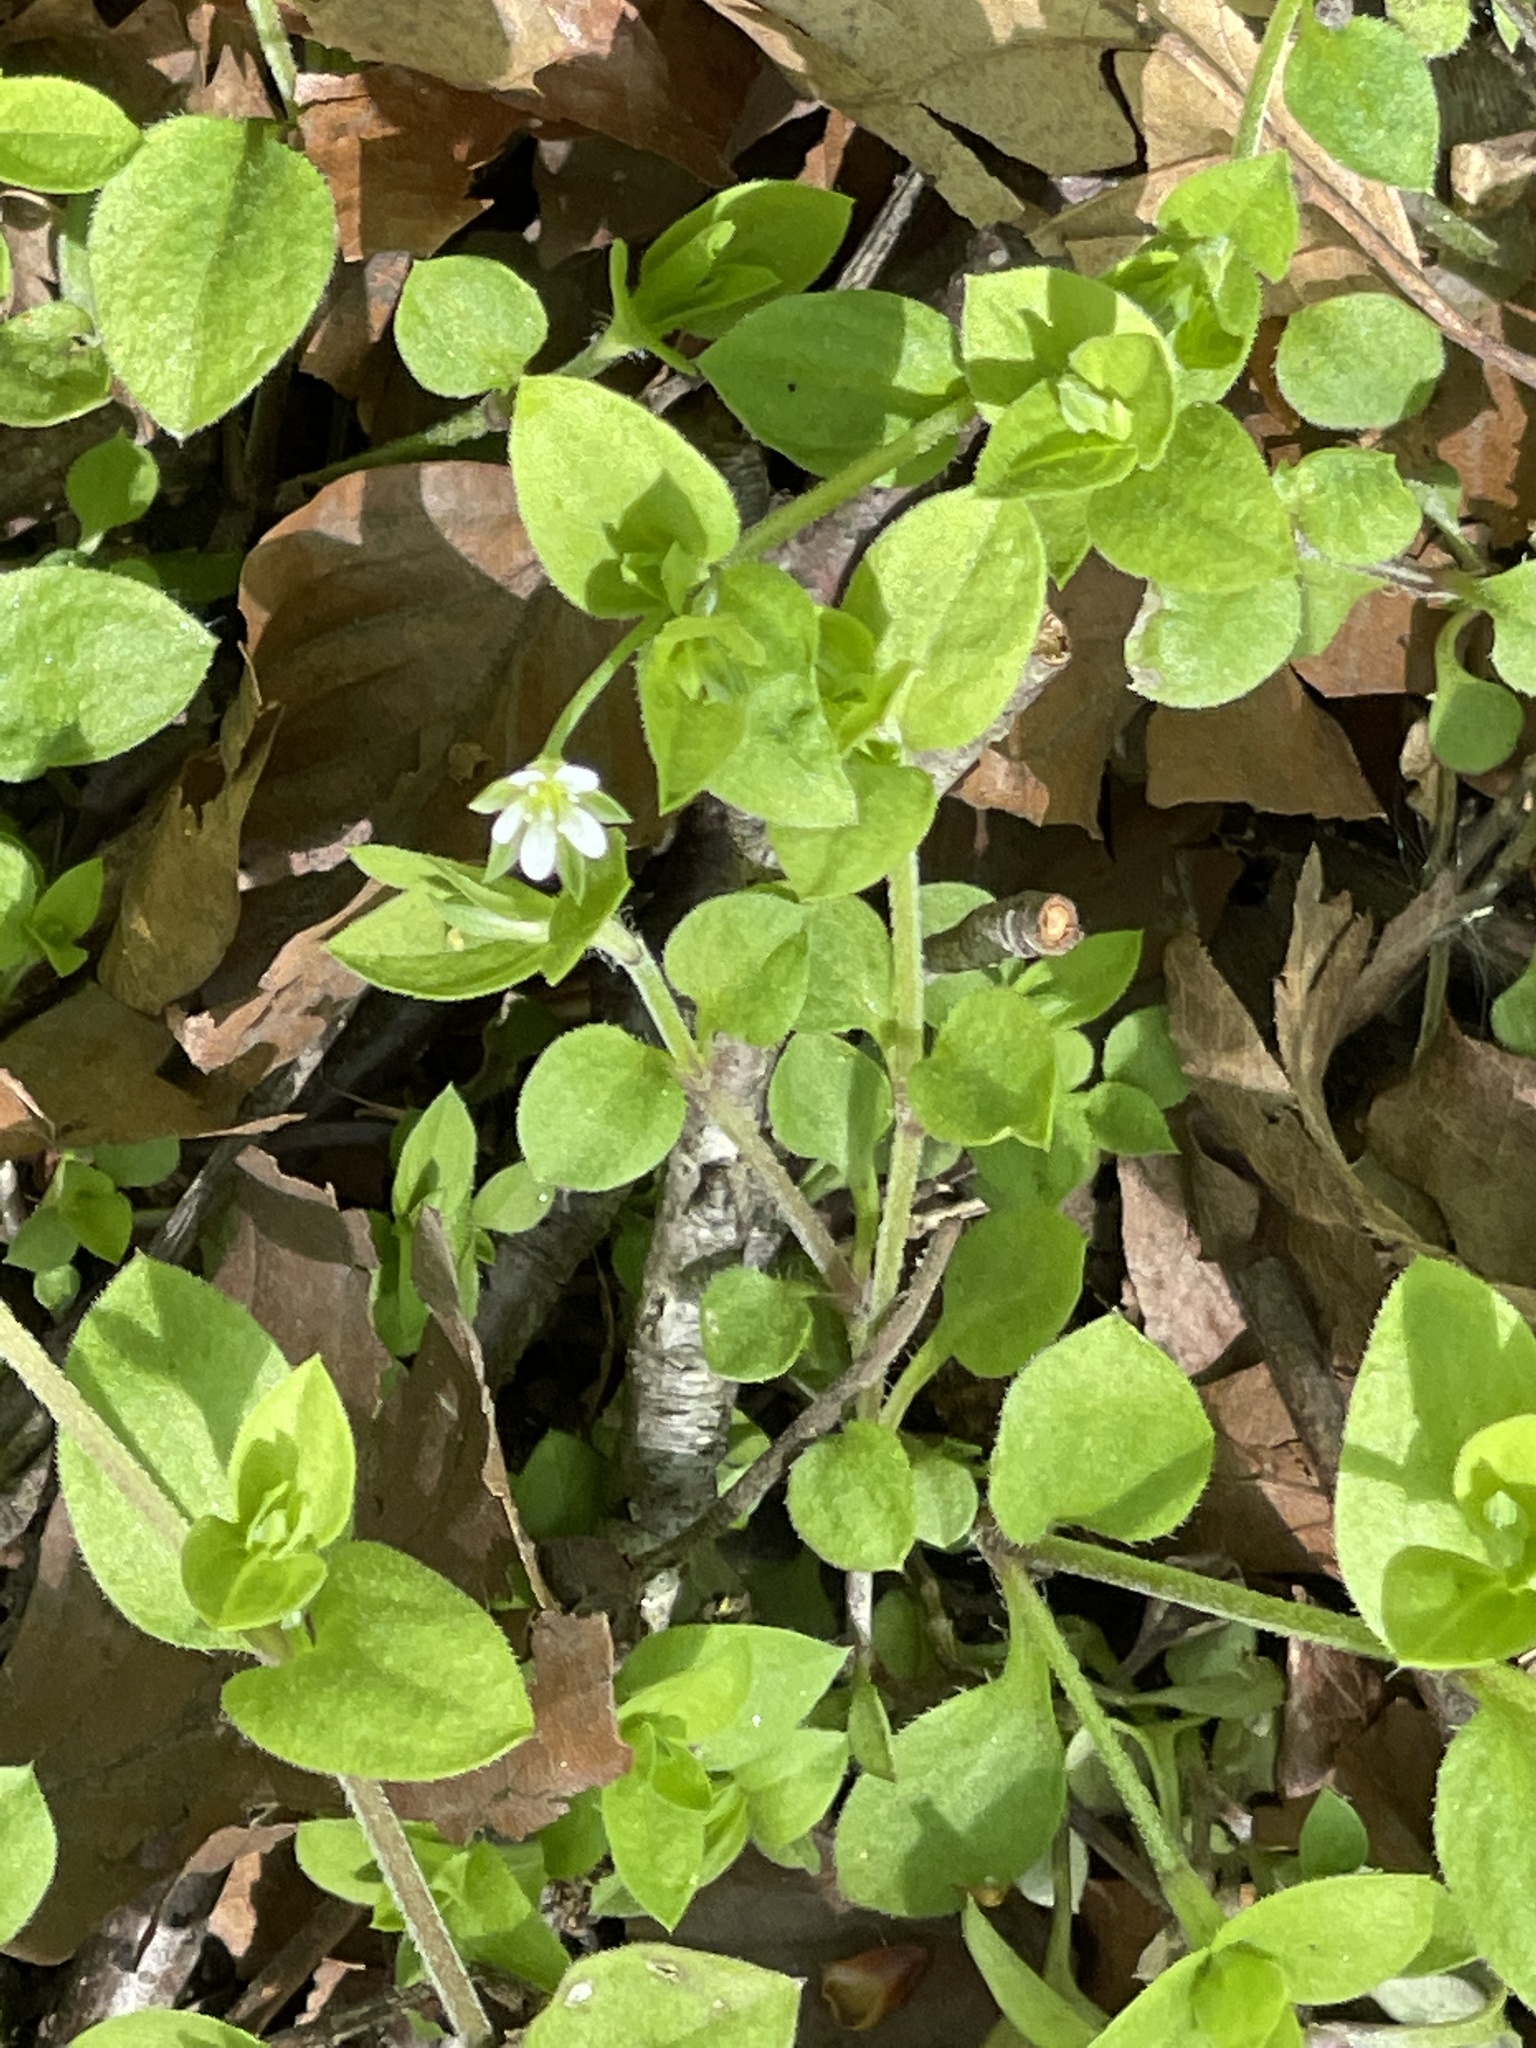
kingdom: Plantae
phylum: Tracheophyta
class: Magnoliopsida
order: Caryophyllales
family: Caryophyllaceae
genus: Moehringia
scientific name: Moehringia trinervia
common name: Three-nerved sandwort
